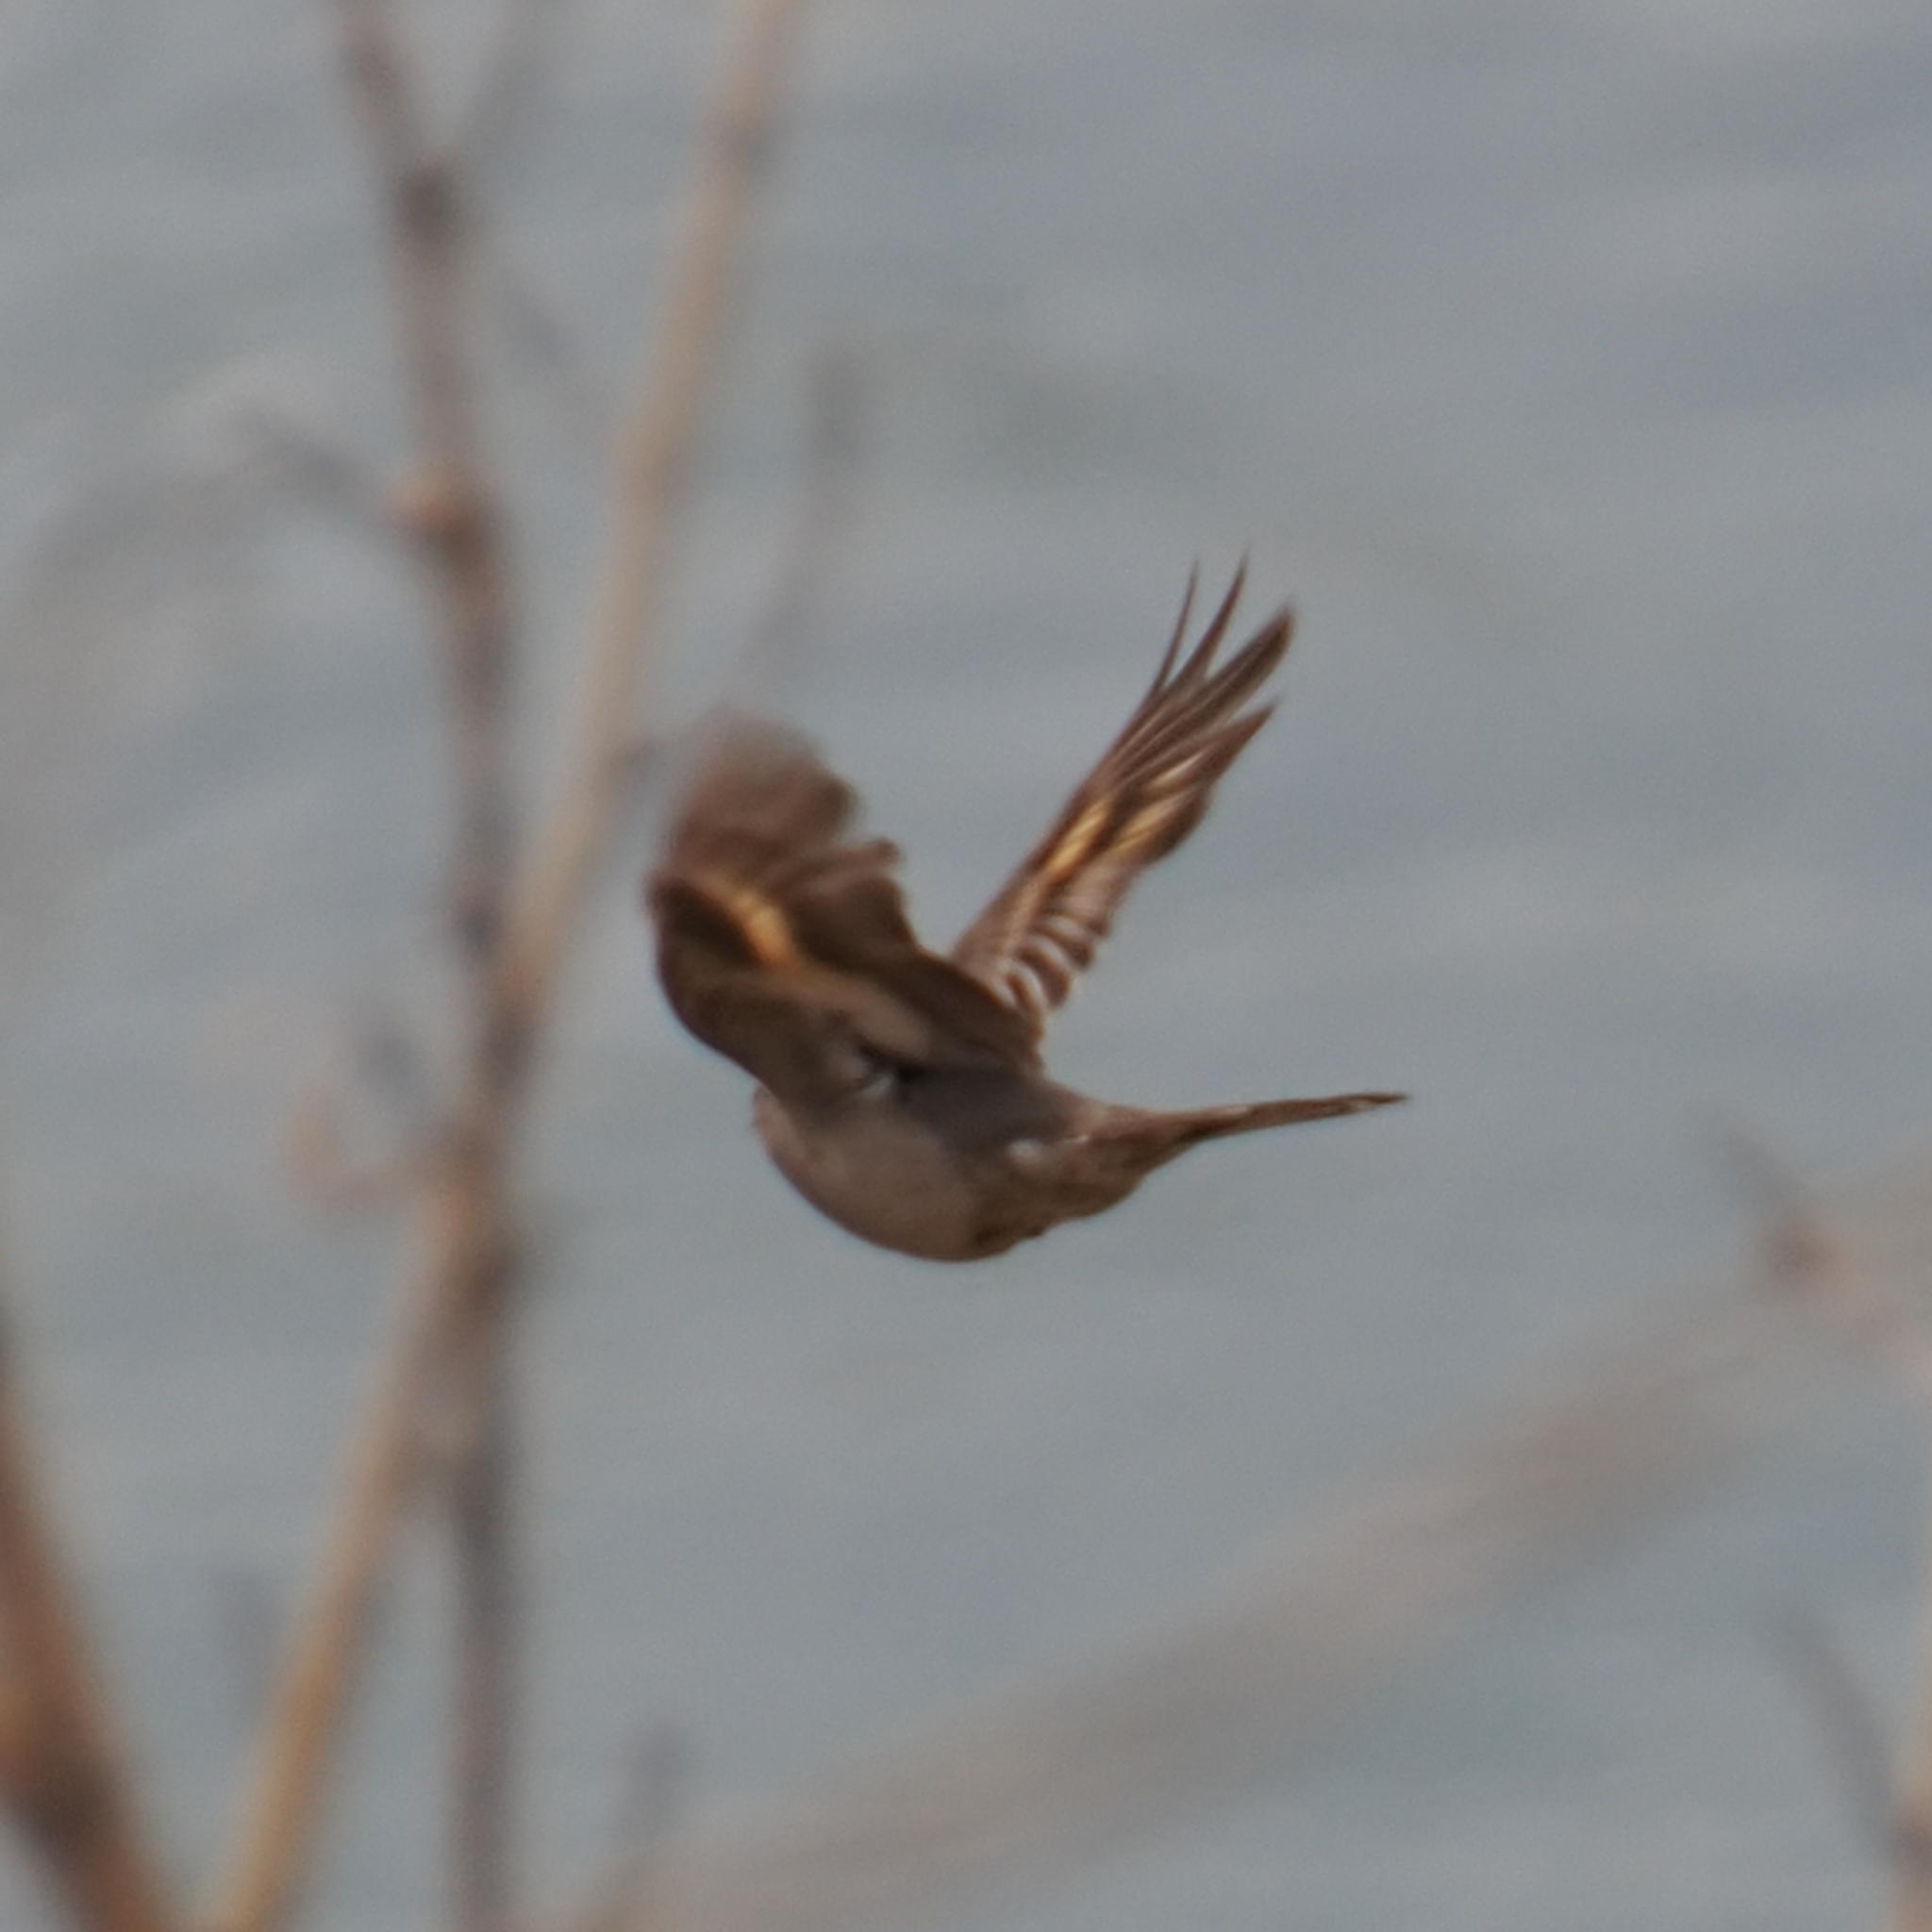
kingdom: Animalia
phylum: Chordata
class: Aves
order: Passeriformes
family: Turdidae
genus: Myadestes
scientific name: Myadestes townsendi
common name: Townsend's solitaire
